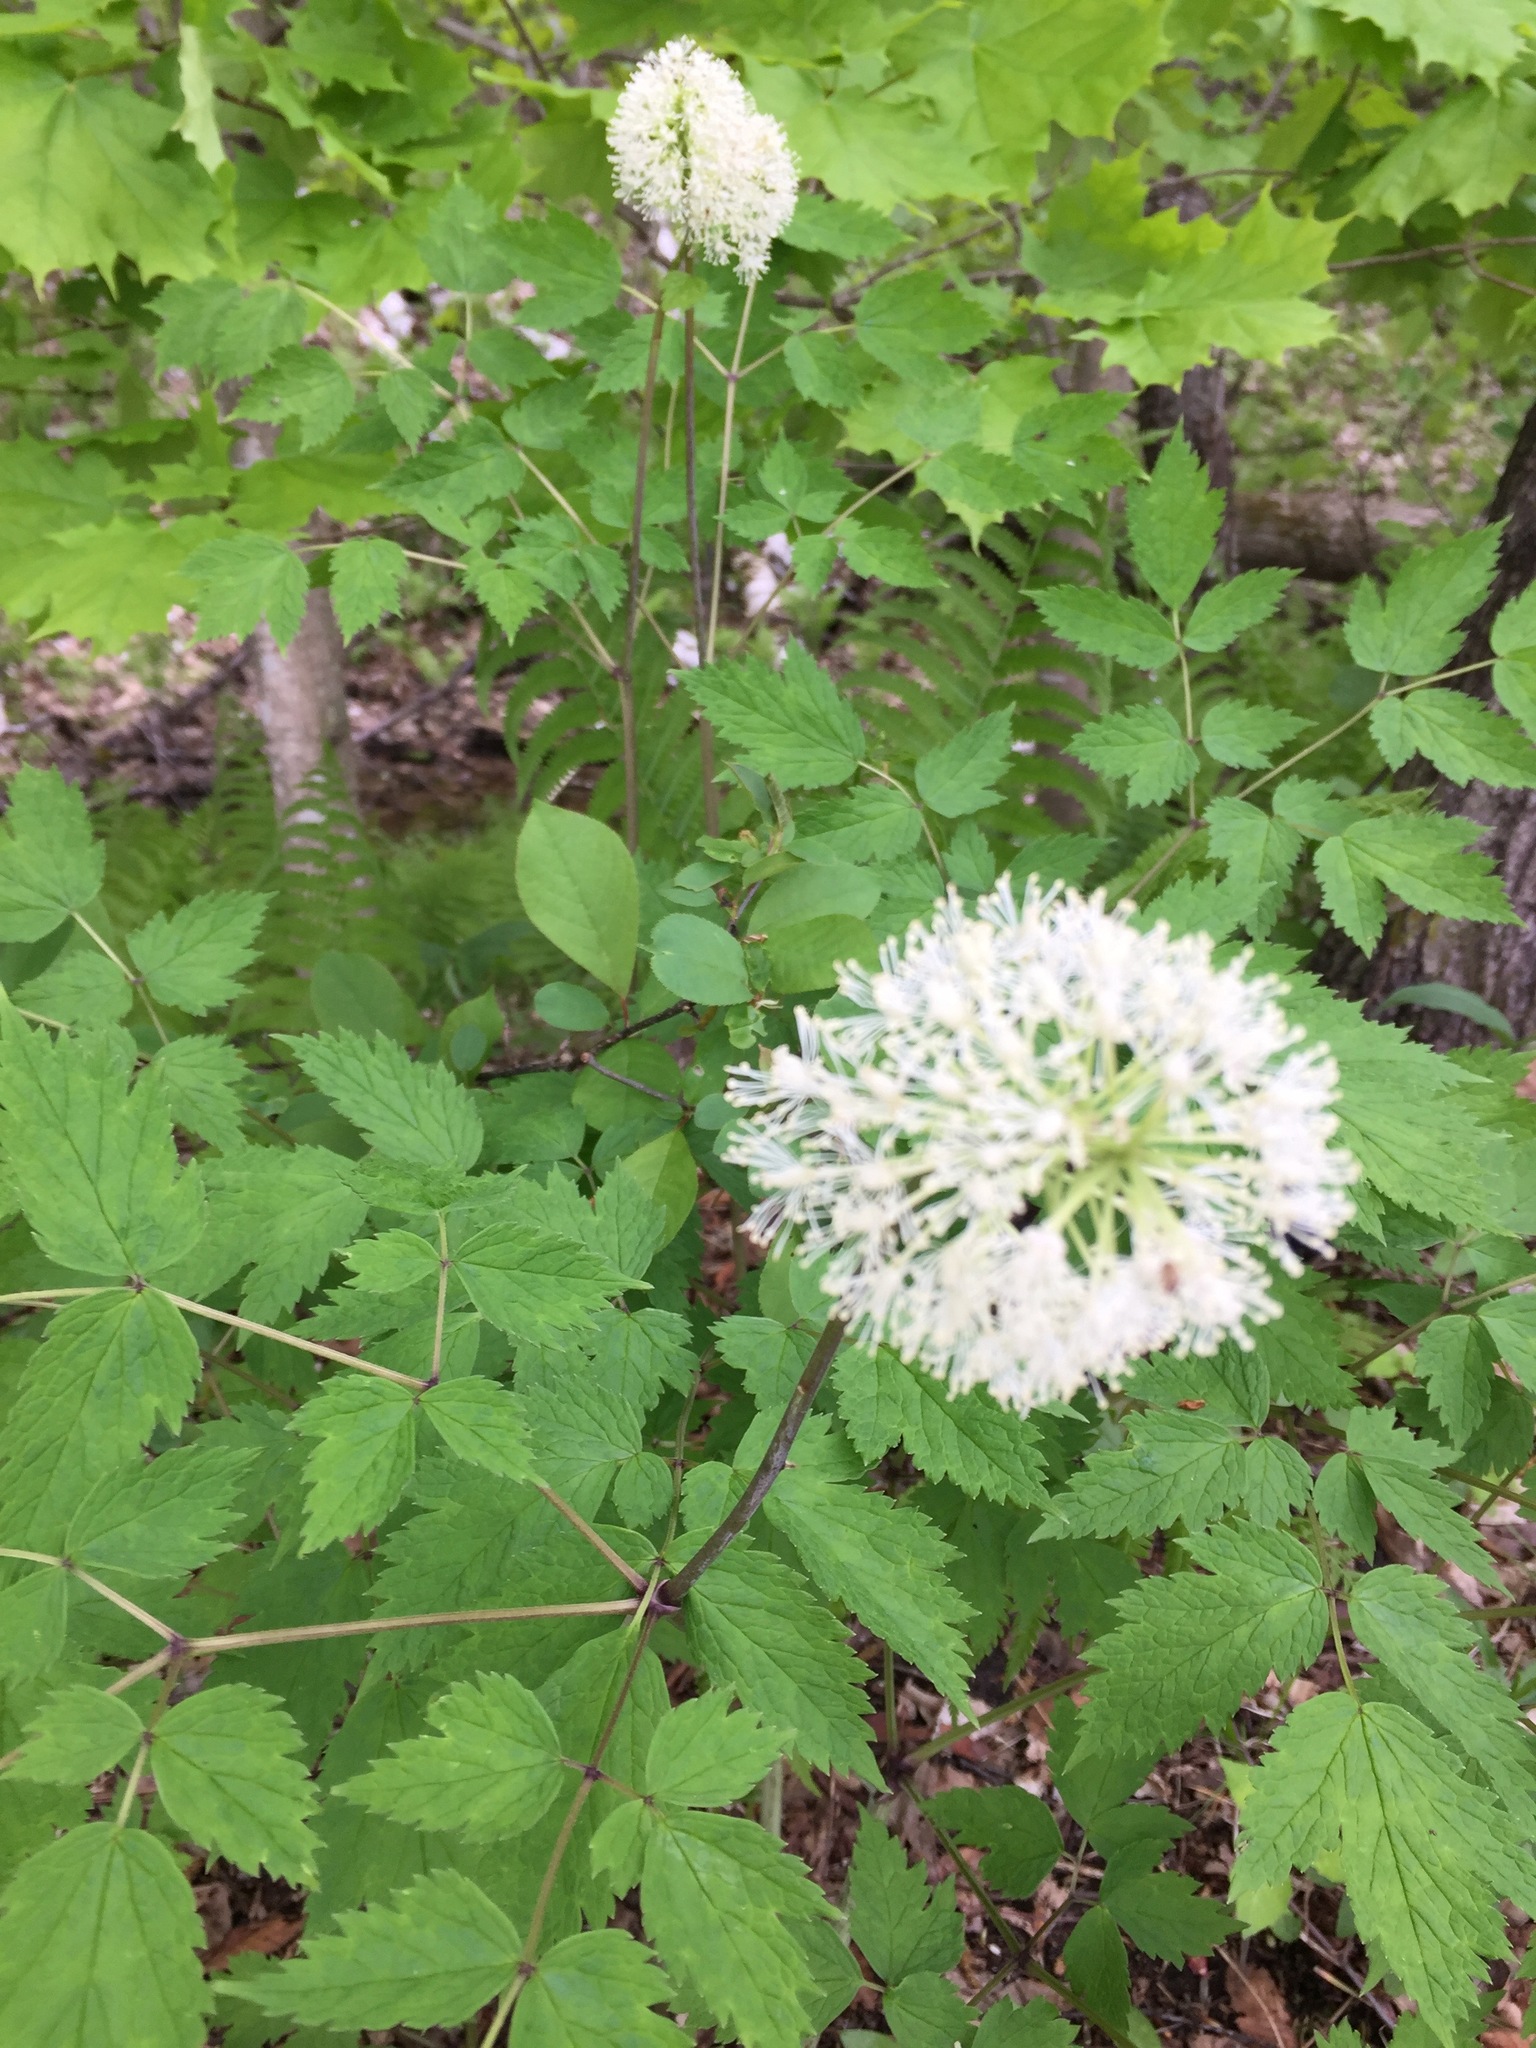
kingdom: Plantae
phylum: Tracheophyta
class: Magnoliopsida
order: Ranunculales
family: Ranunculaceae
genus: Actaea
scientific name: Actaea rubra
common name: Red baneberry
